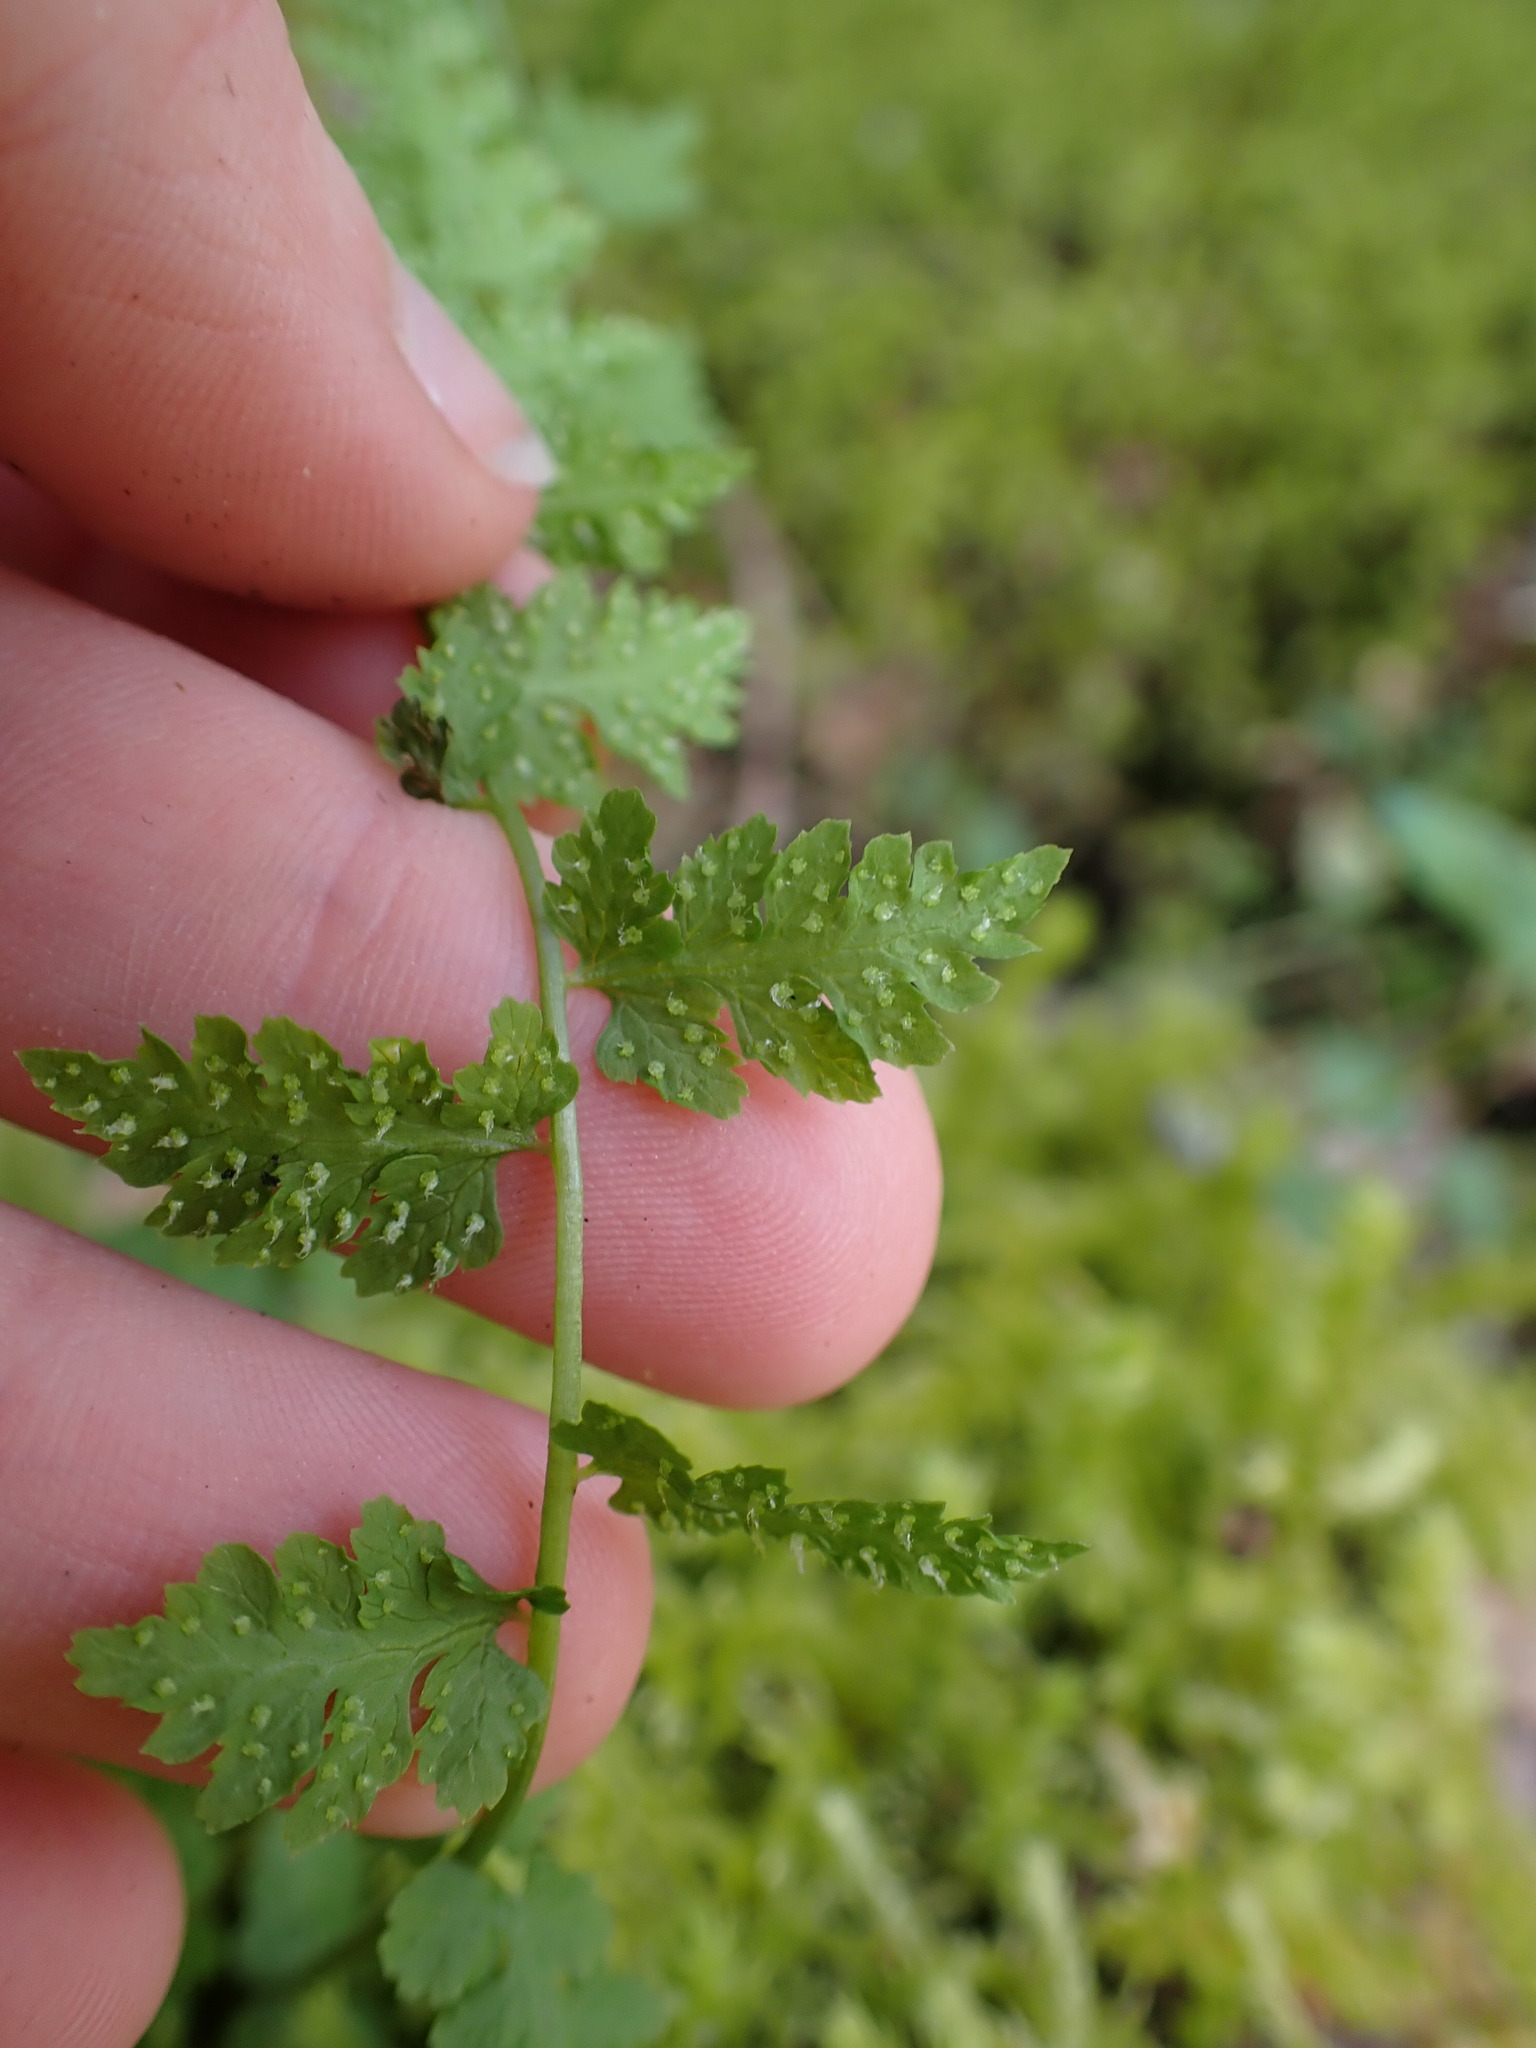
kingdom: Plantae
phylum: Tracheophyta
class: Polypodiopsida
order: Polypodiales
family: Cystopteridaceae
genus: Cystopteris
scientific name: Cystopteris fragilis
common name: Brittle bladder fern
